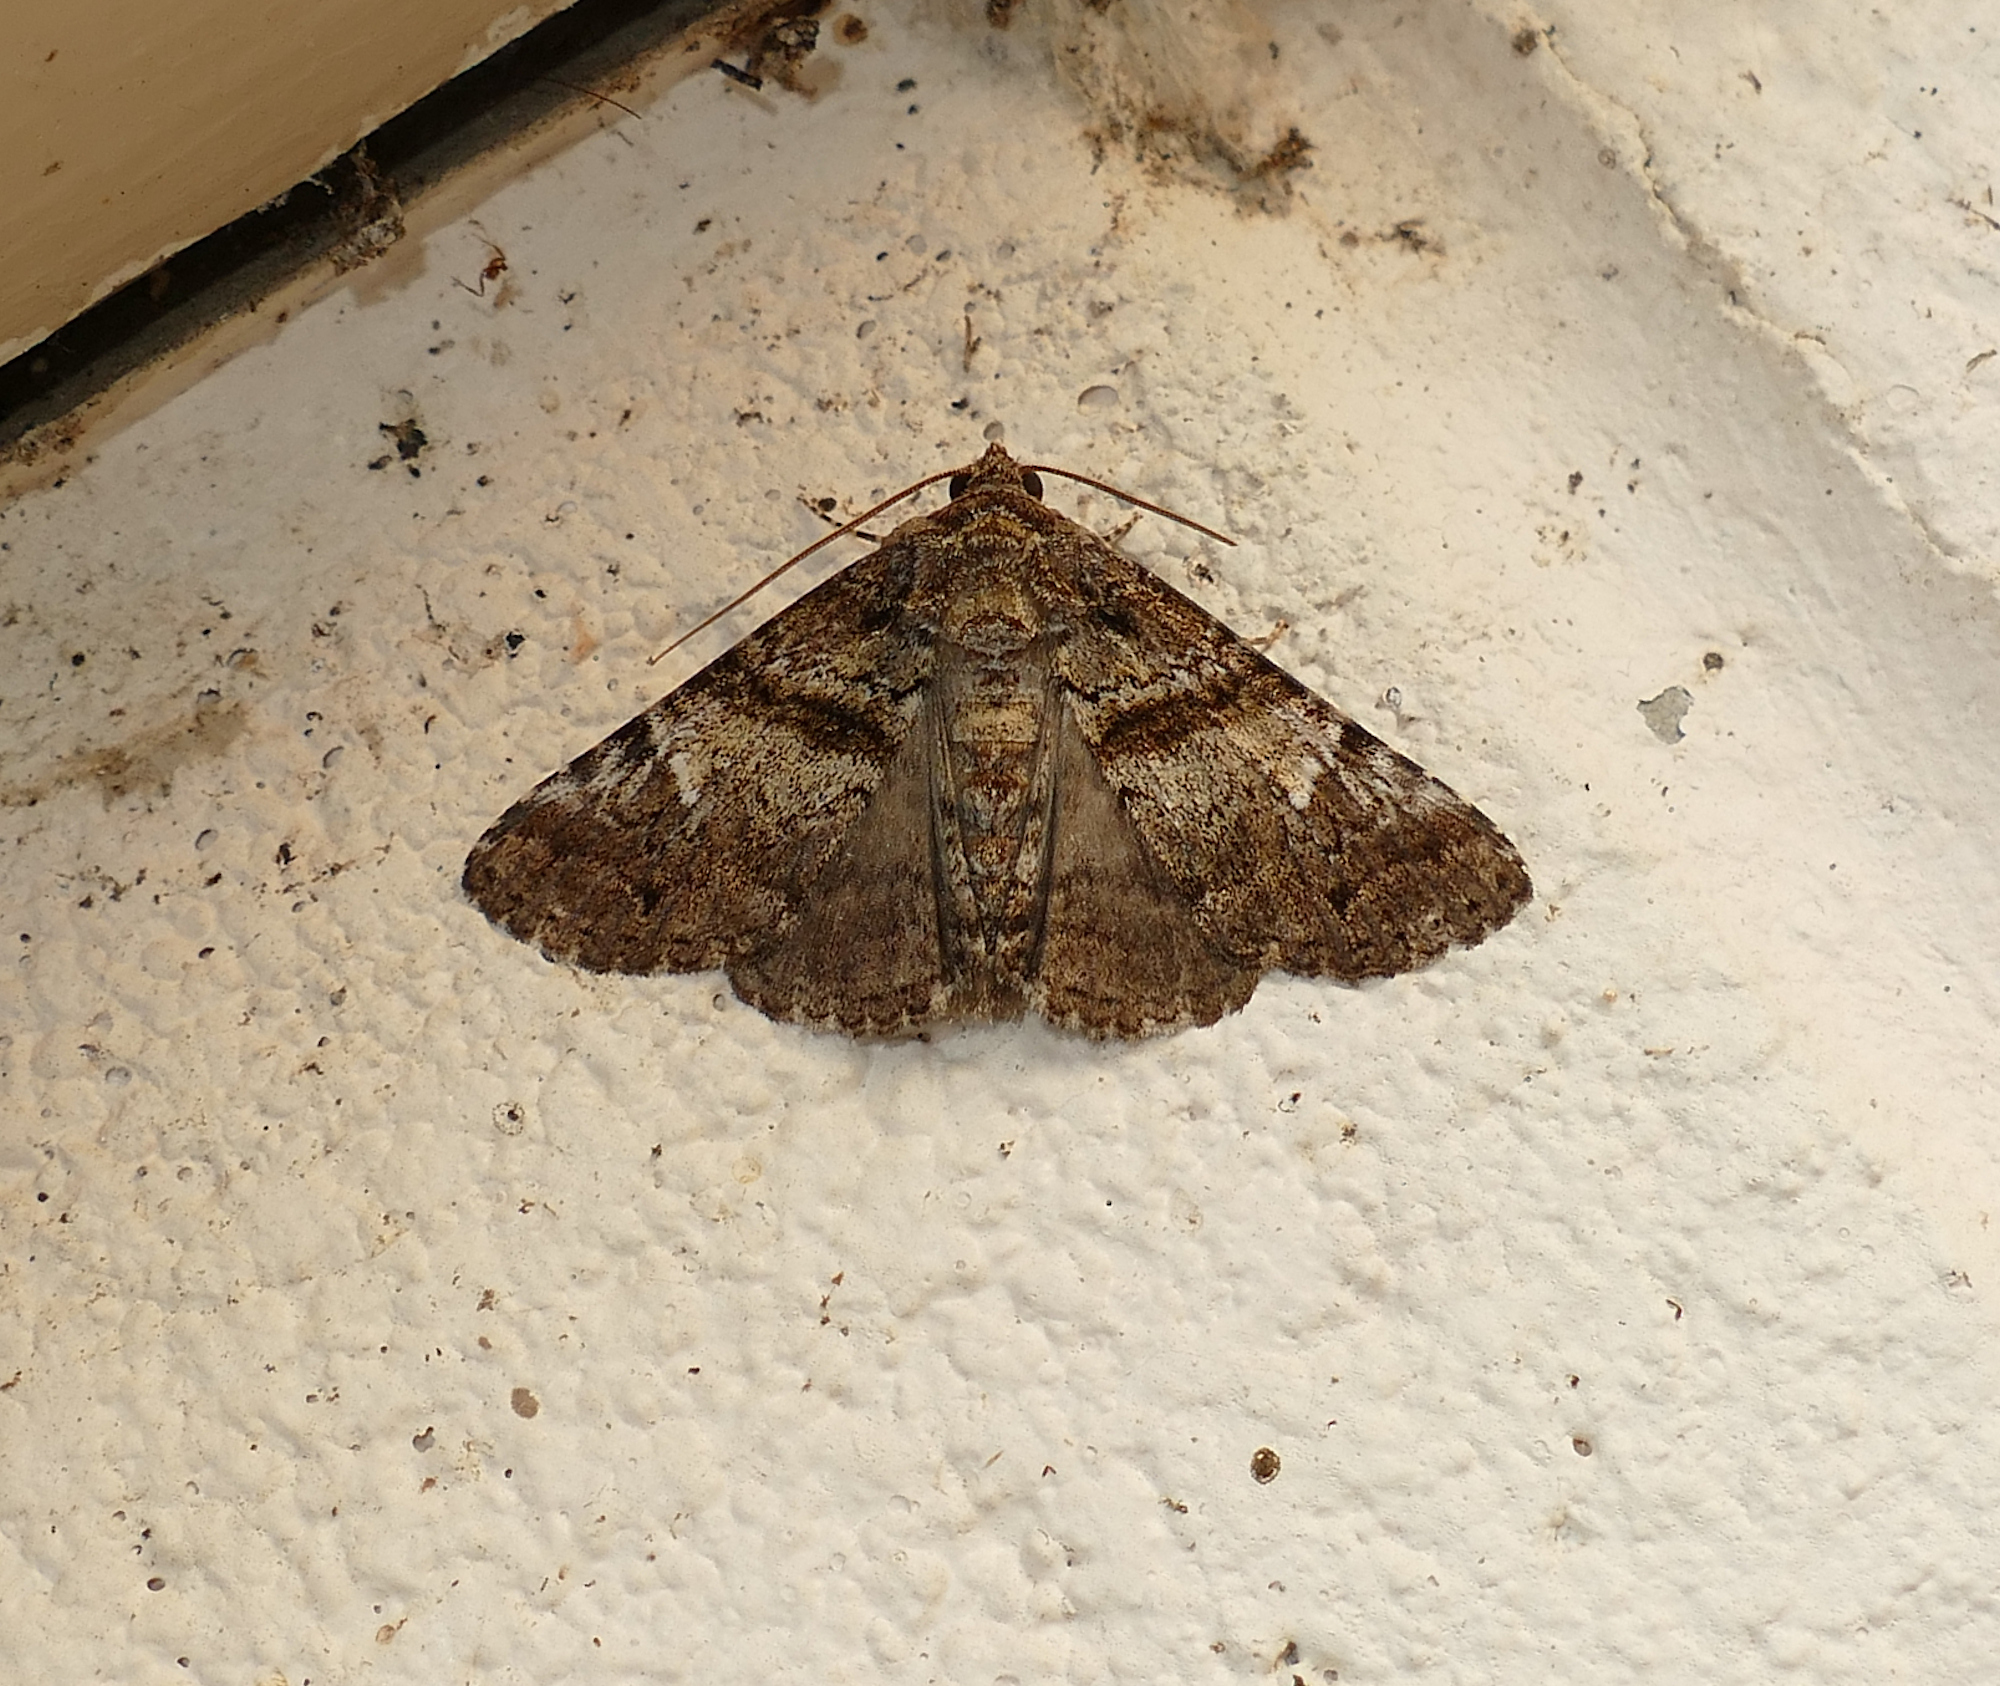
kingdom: Animalia
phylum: Arthropoda
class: Insecta
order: Lepidoptera
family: Erebidae
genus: Metria
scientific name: Metria amella
